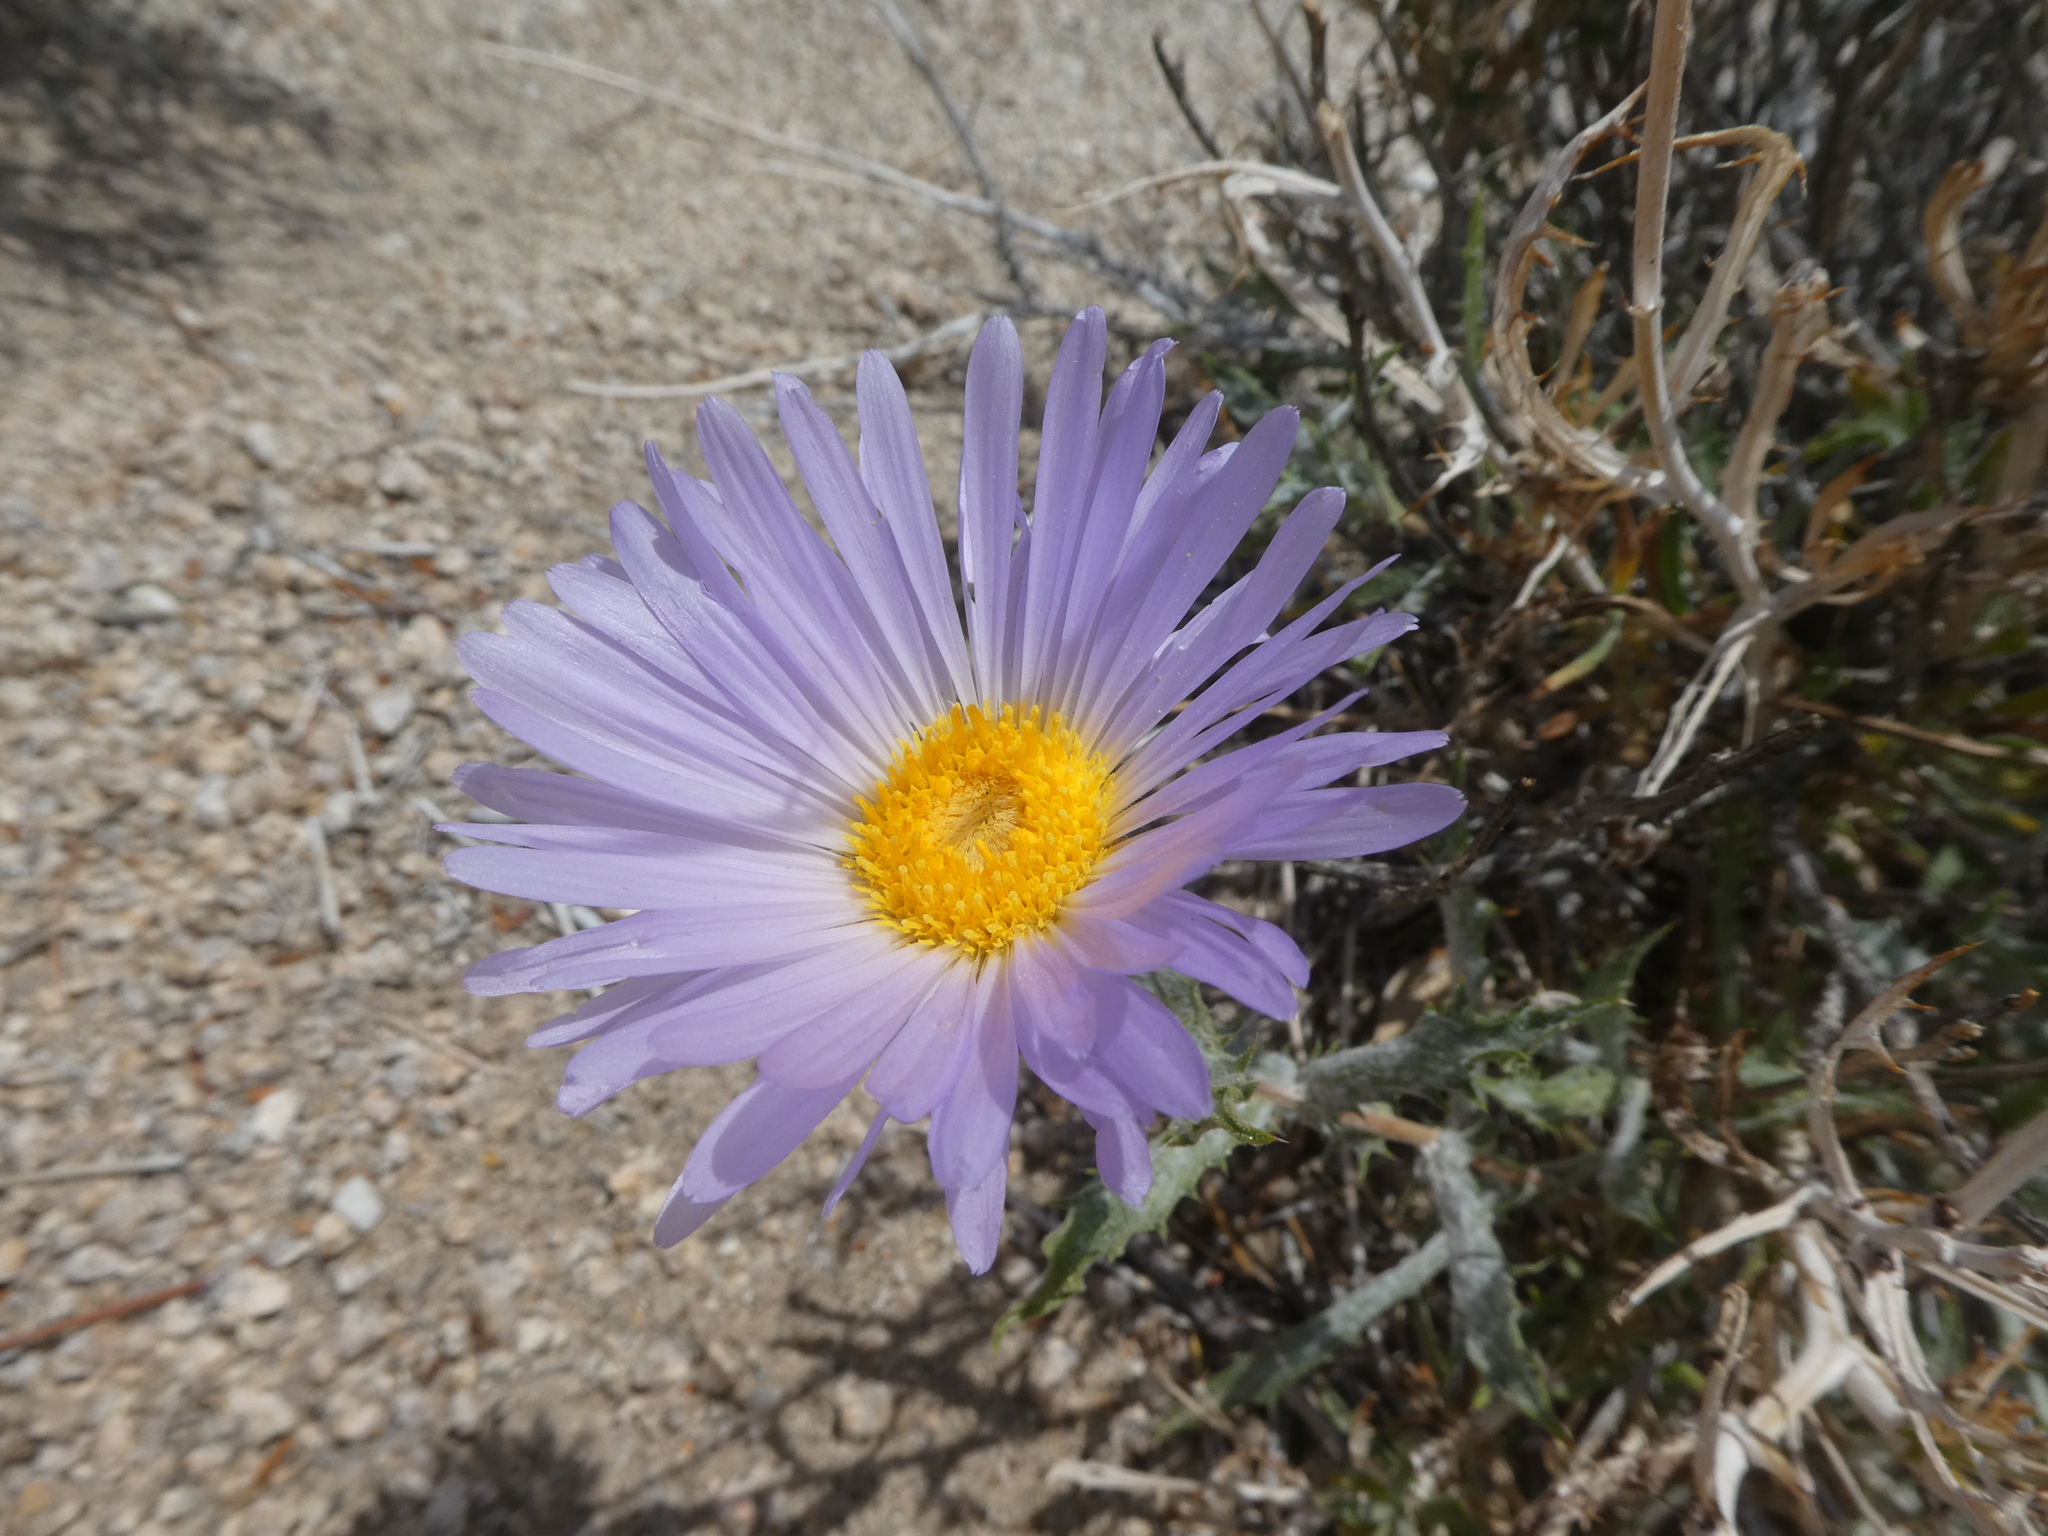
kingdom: Plantae
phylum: Tracheophyta
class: Magnoliopsida
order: Asterales
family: Asteraceae
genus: Xylorhiza
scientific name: Xylorhiza tortifolia
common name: Hurt-leaf woody-aster
